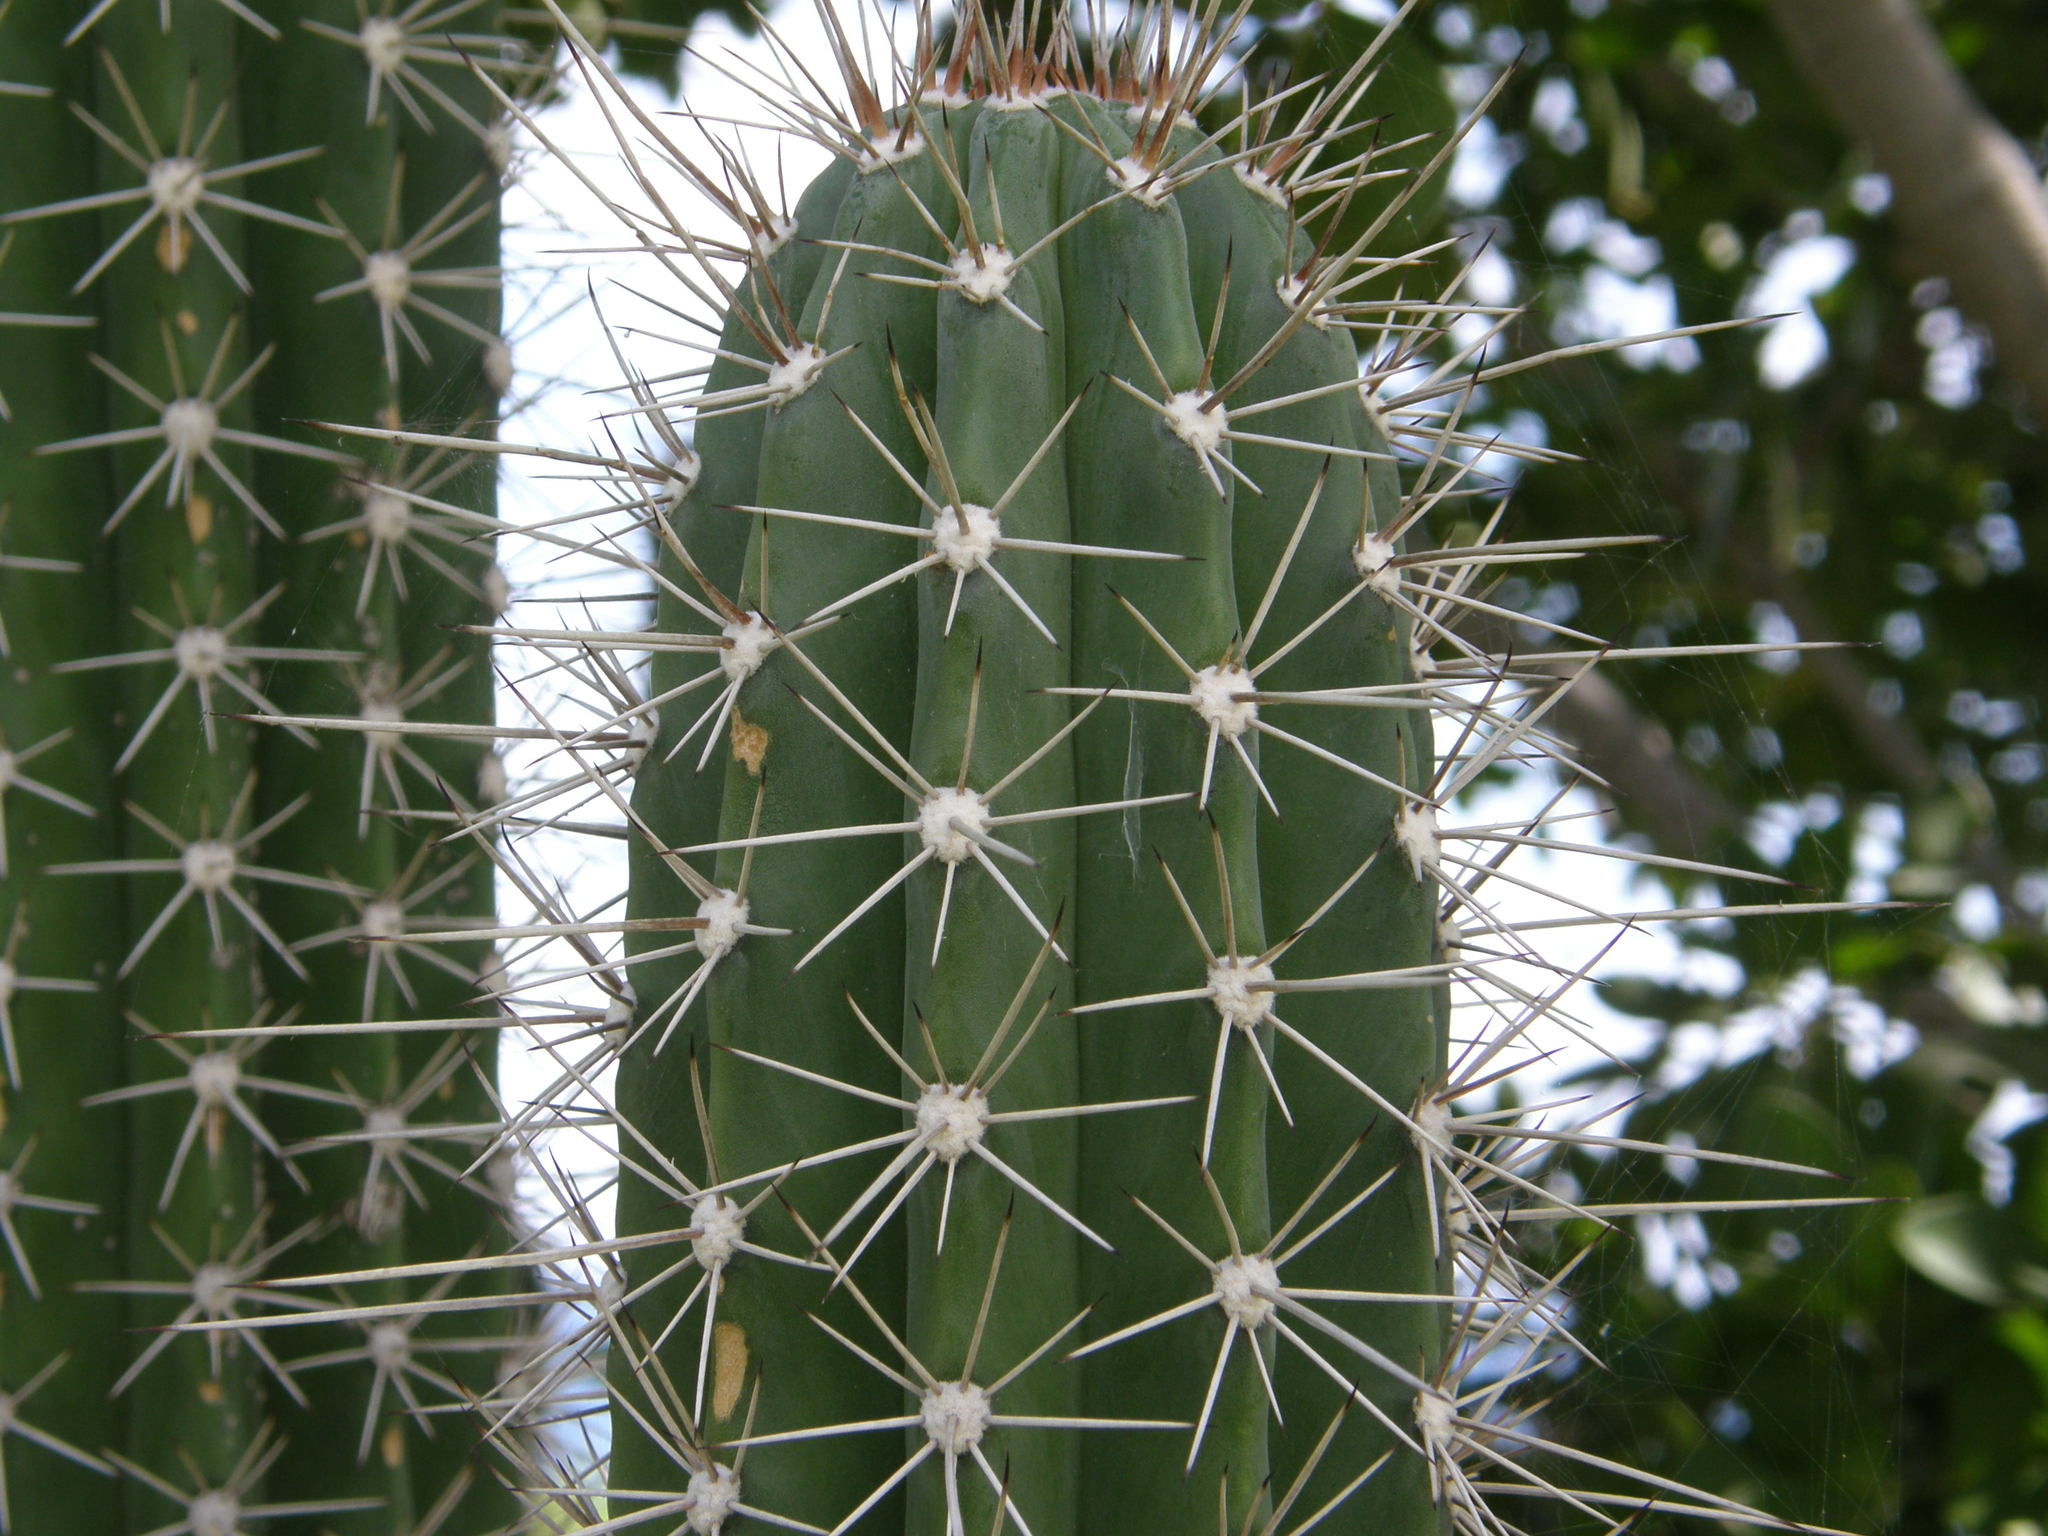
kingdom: Plantae
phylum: Tracheophyta
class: Magnoliopsida
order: Caryophyllales
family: Cactaceae
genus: Stenocereus
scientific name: Stenocereus heptagonus
